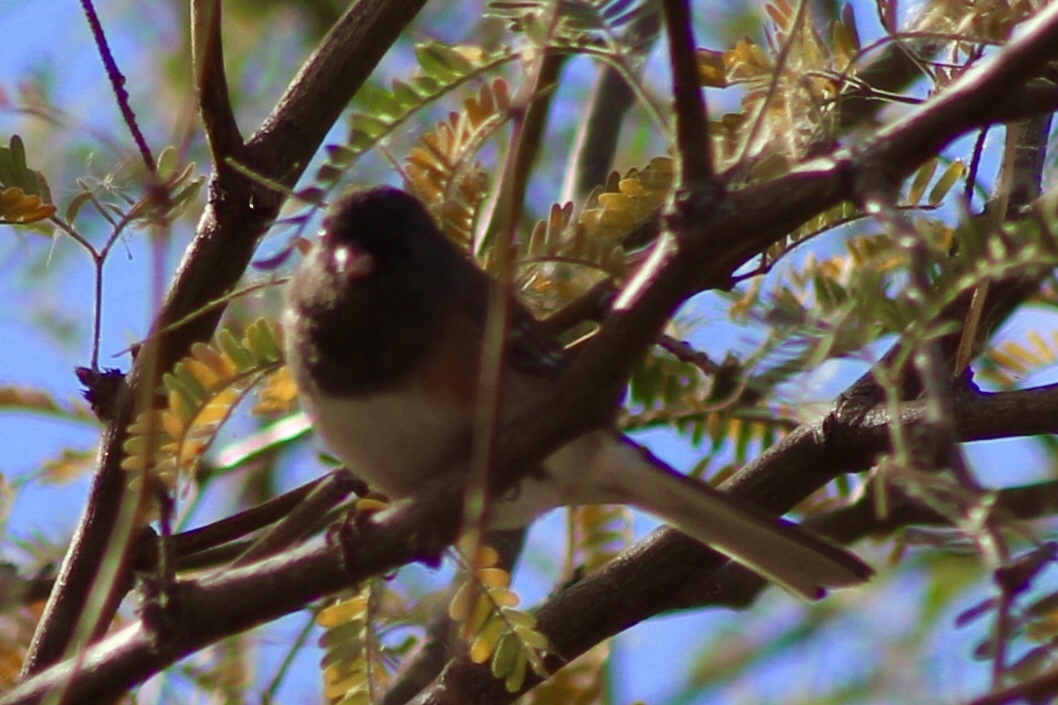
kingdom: Animalia
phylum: Chordata
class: Aves
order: Passeriformes
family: Passerellidae
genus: Junco
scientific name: Junco hyemalis
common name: Dark-eyed junco
